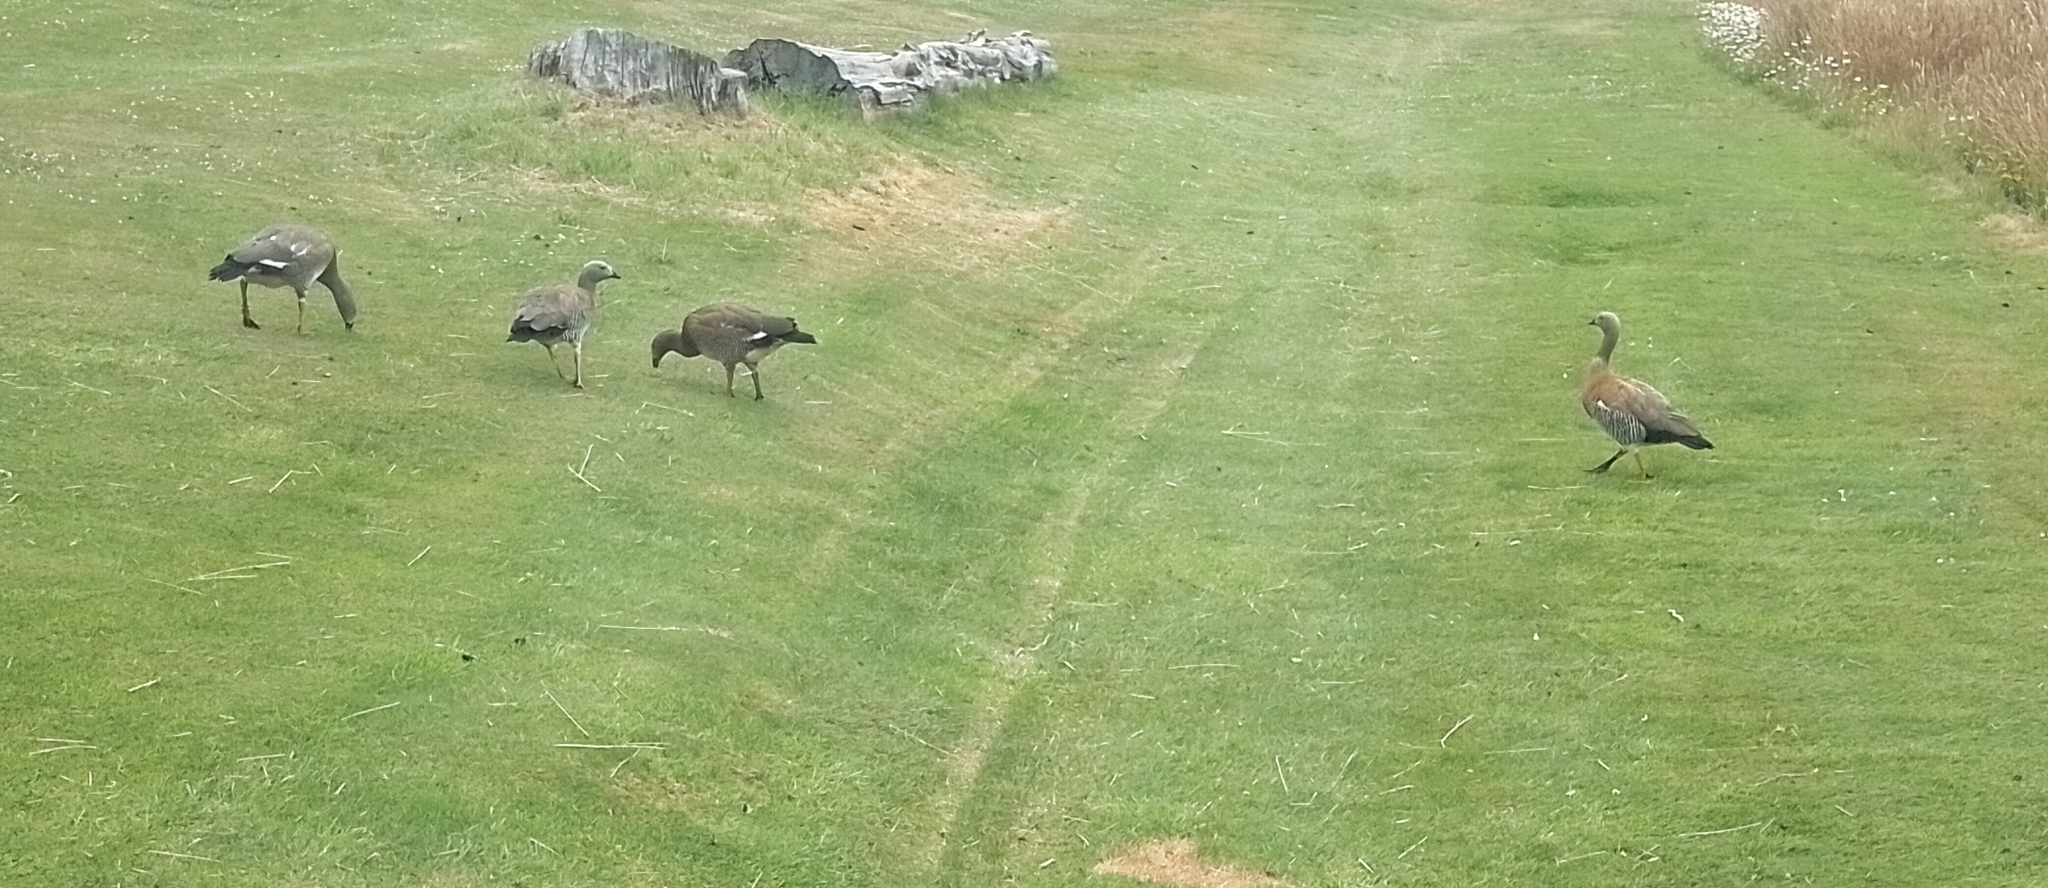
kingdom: Animalia
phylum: Chordata
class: Aves
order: Anseriformes
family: Anatidae
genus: Chloephaga
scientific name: Chloephaga poliocephala
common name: Ashy-headed goose
